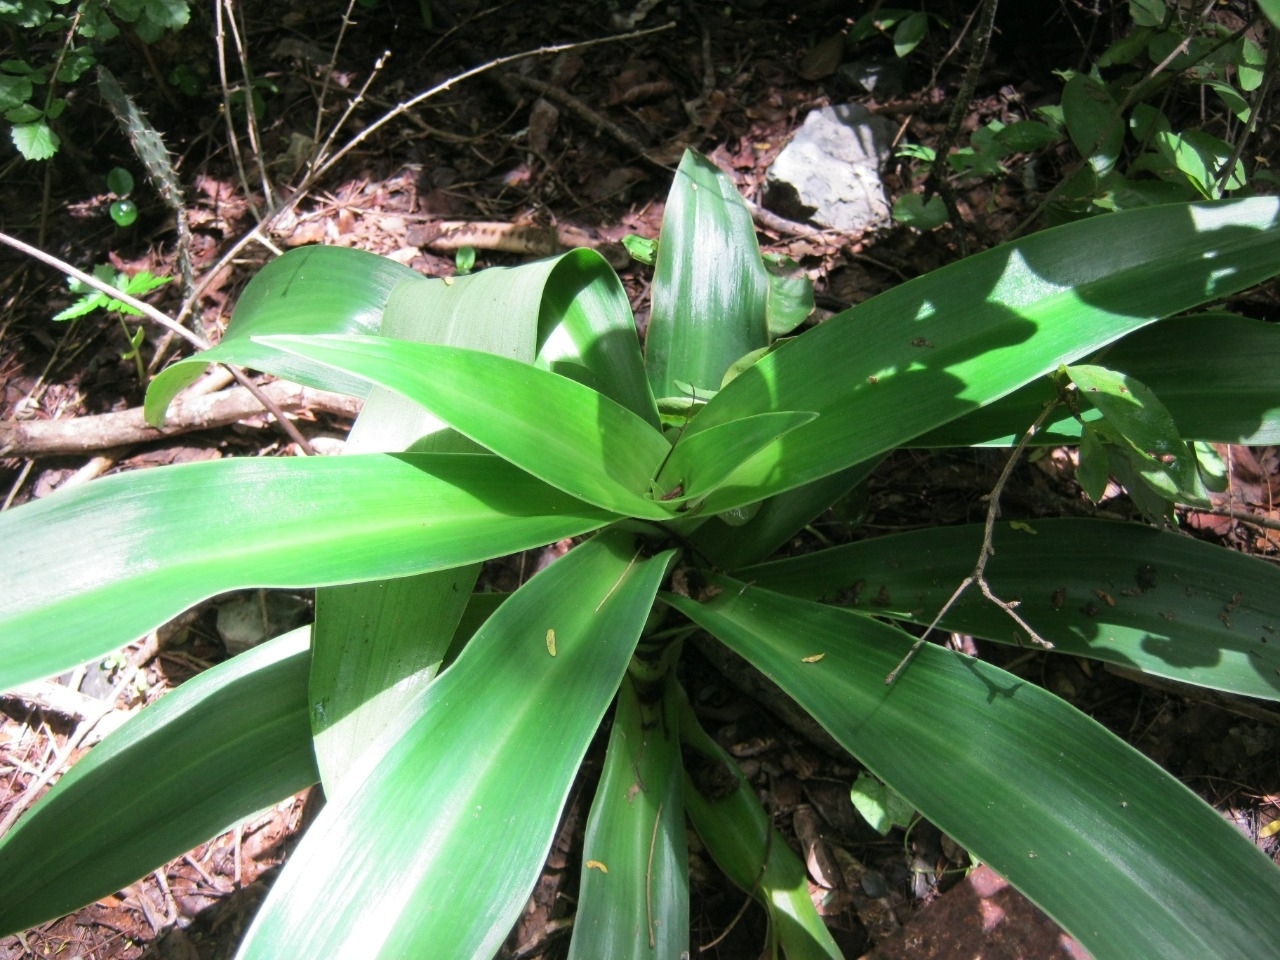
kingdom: Plantae
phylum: Tracheophyta
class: Liliopsida
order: Commelinales
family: Commelinaceae
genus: Callisia
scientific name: Callisia fragrans
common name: Basketplant
